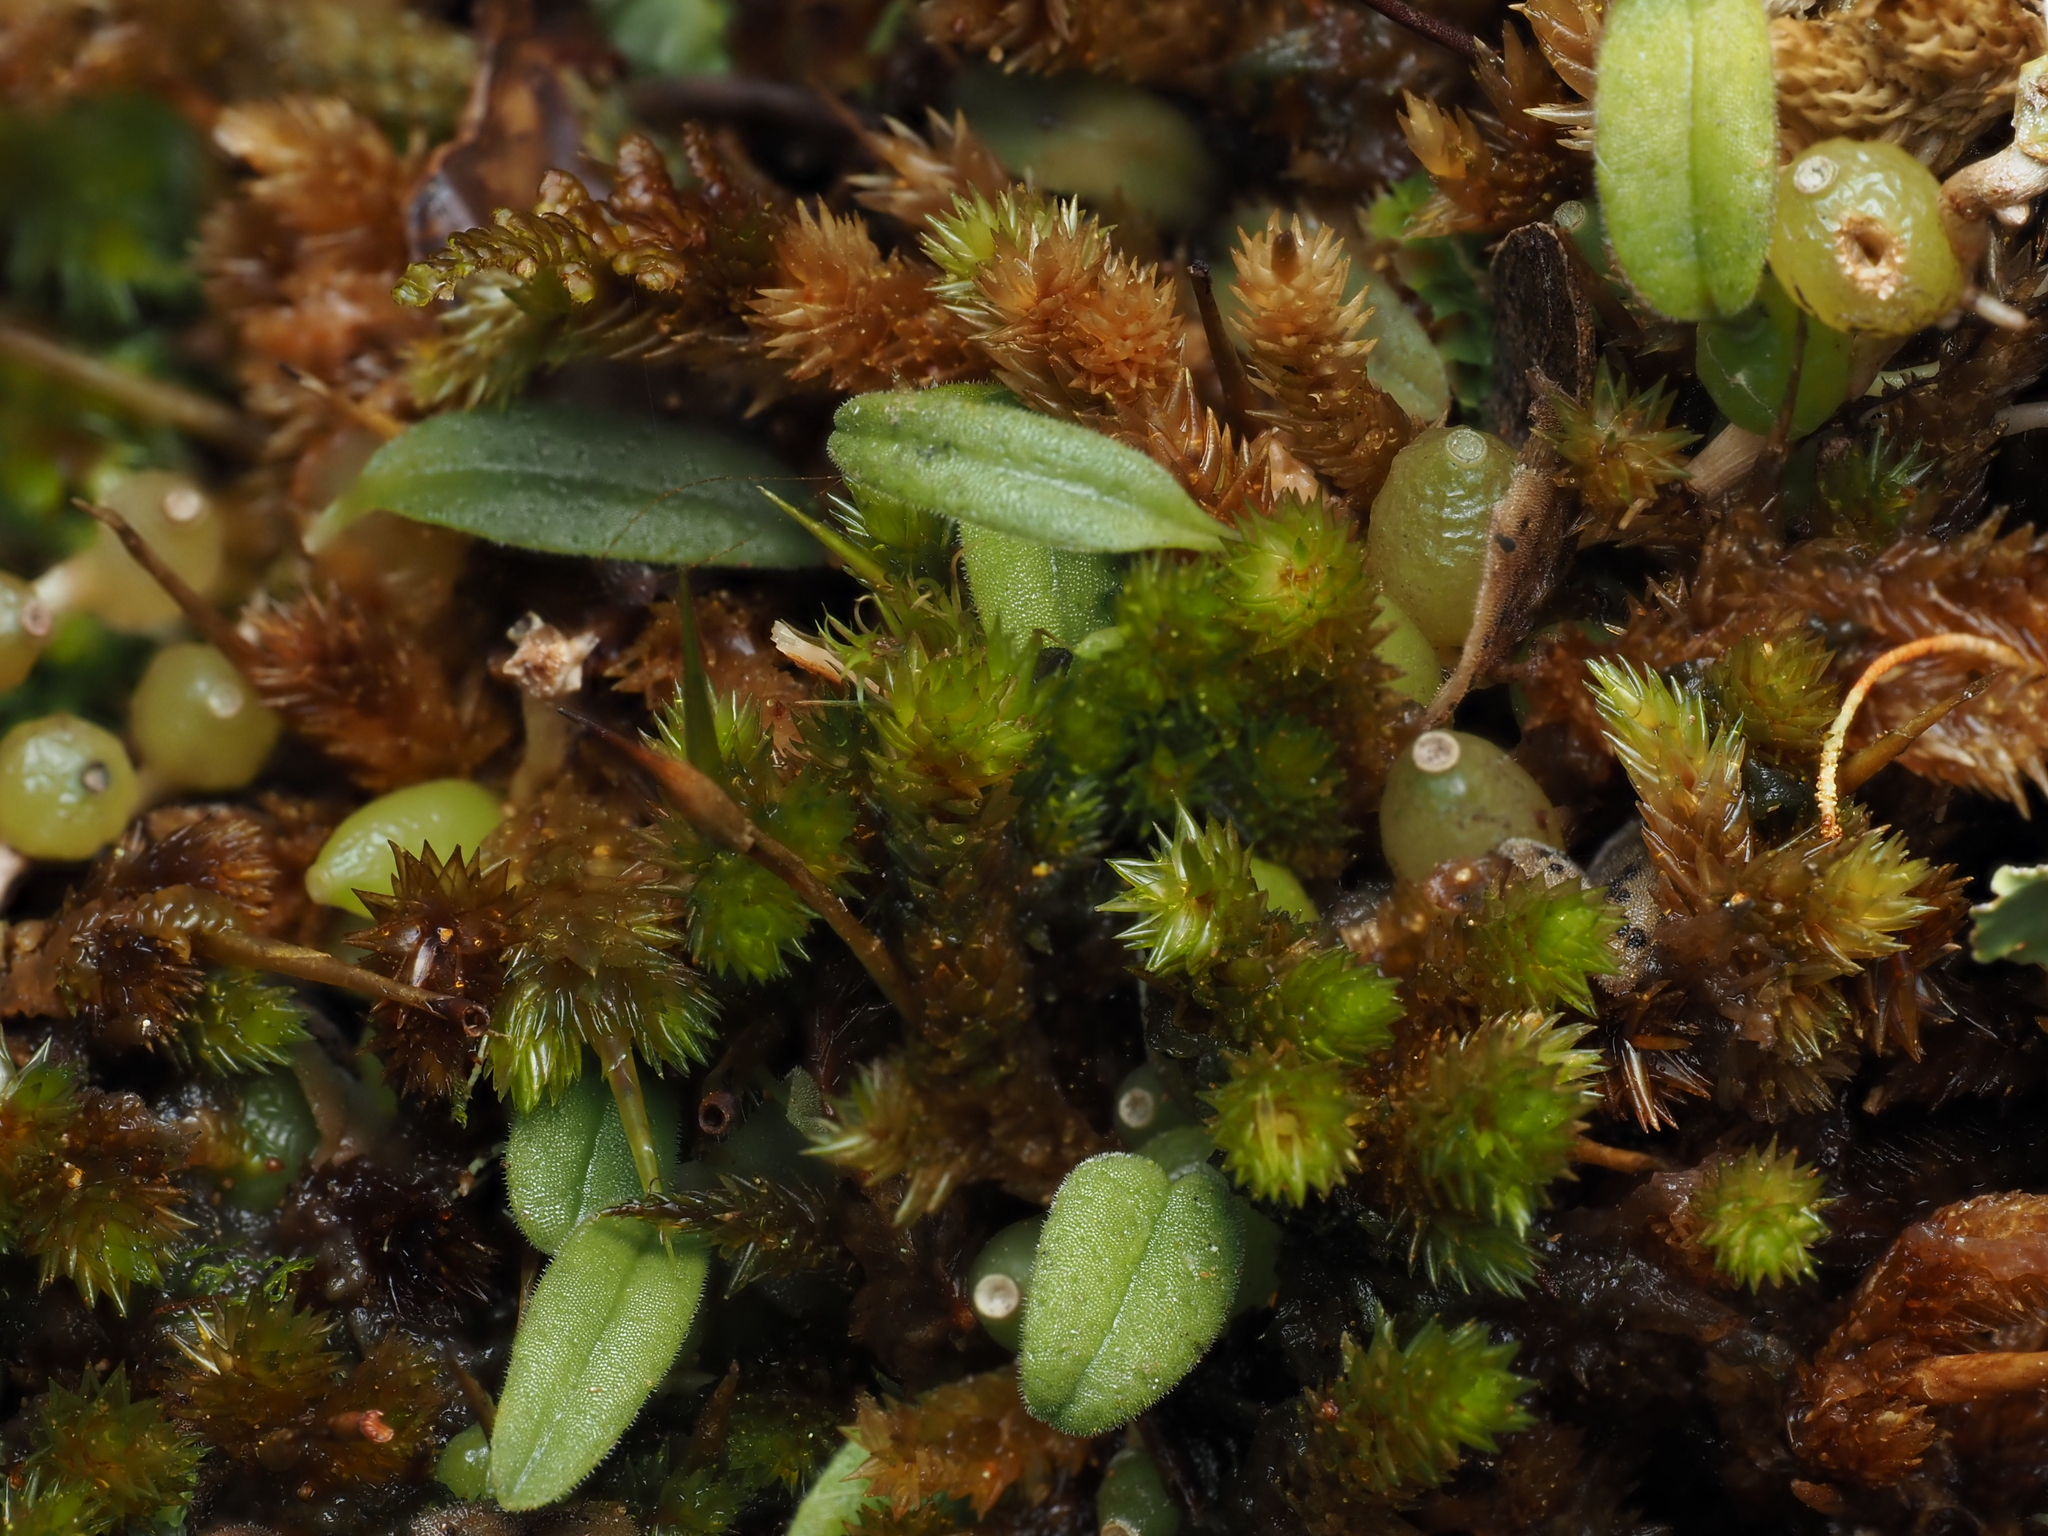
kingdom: Plantae
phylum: Tracheophyta
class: Liliopsida
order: Asparagales
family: Orchidaceae
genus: Bulbophyllum
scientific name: Bulbophyllum pygmaeum
